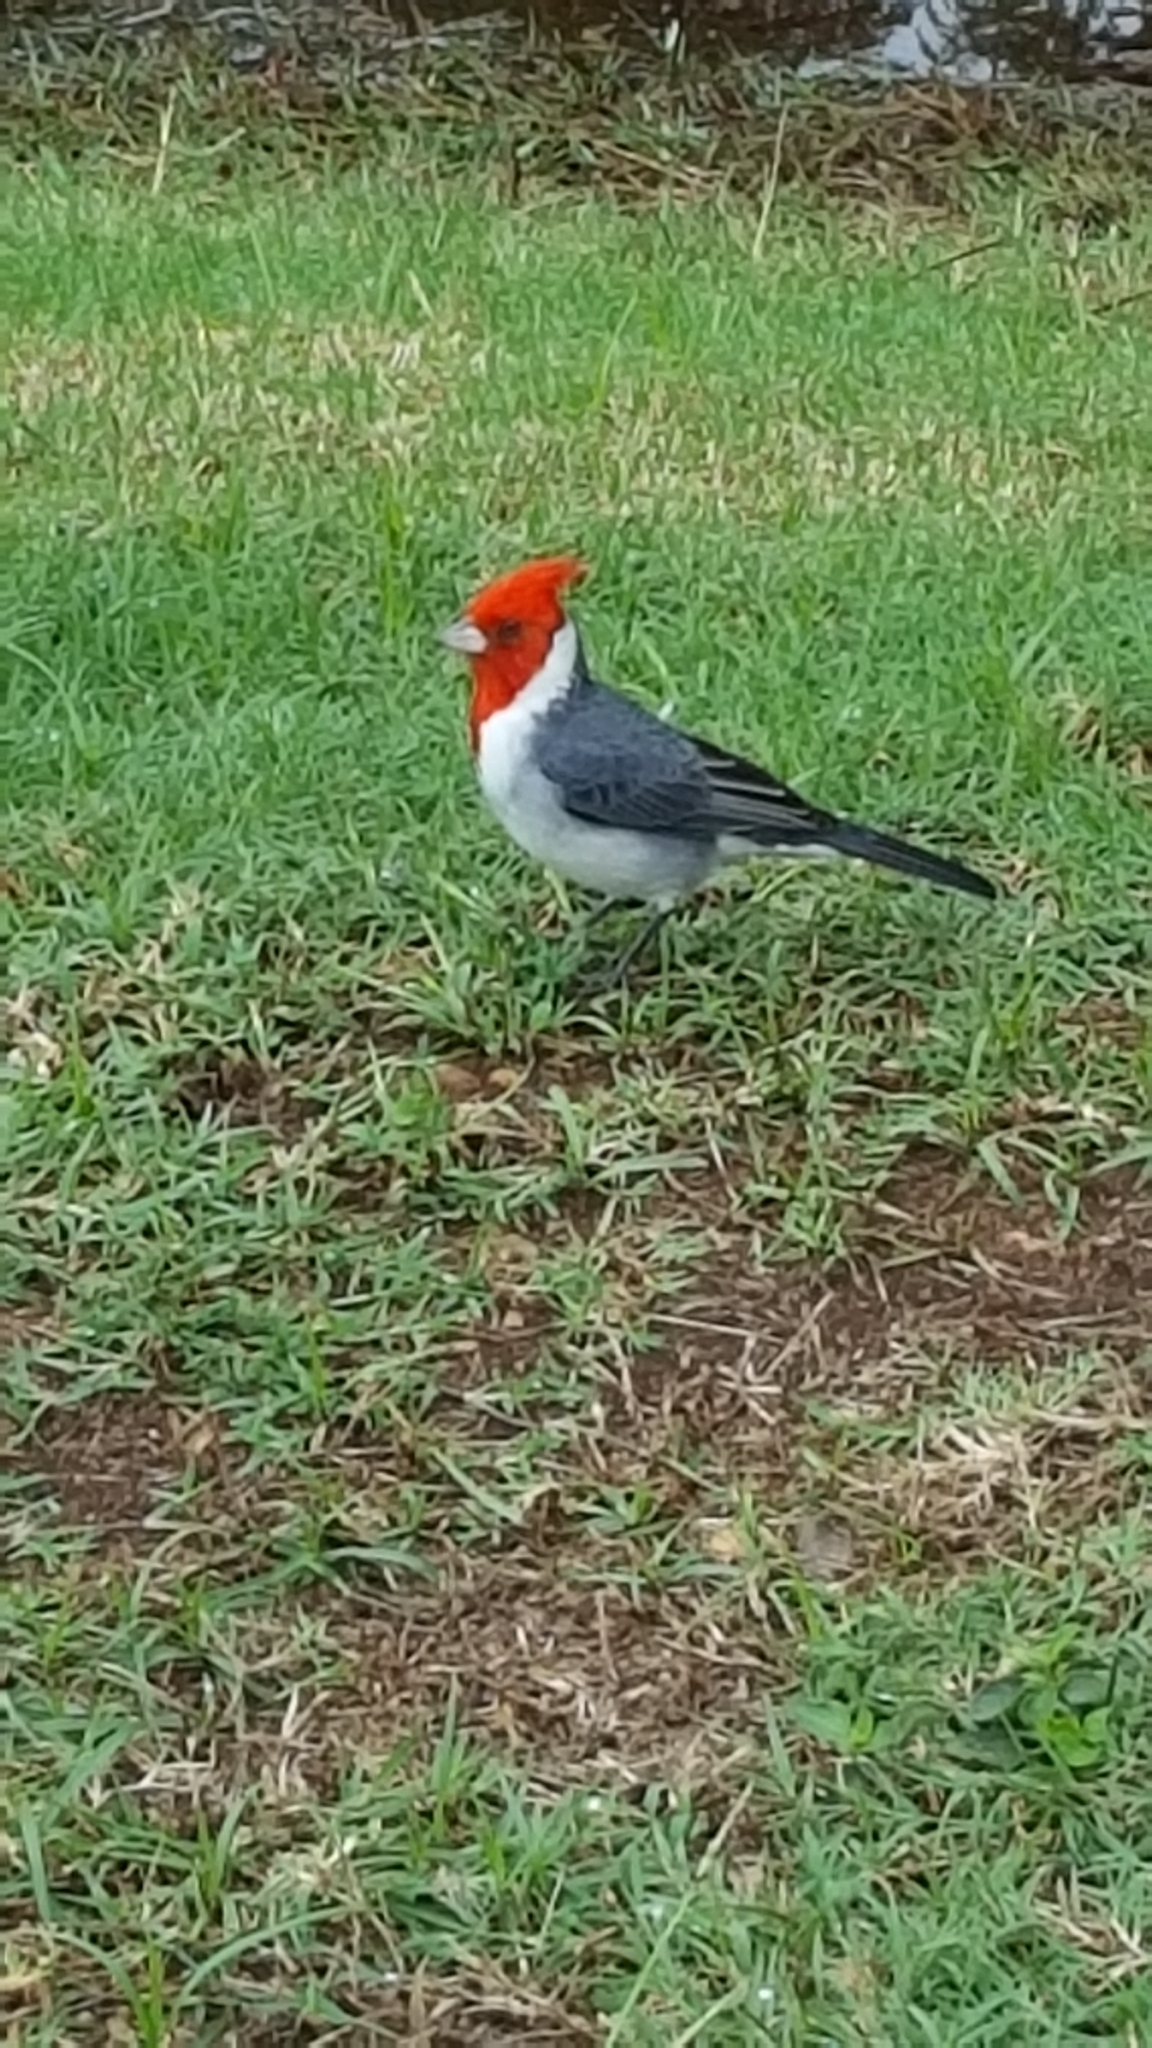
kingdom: Animalia
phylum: Chordata
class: Aves
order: Passeriformes
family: Thraupidae
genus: Paroaria
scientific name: Paroaria coronata
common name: Red-crested cardinal
